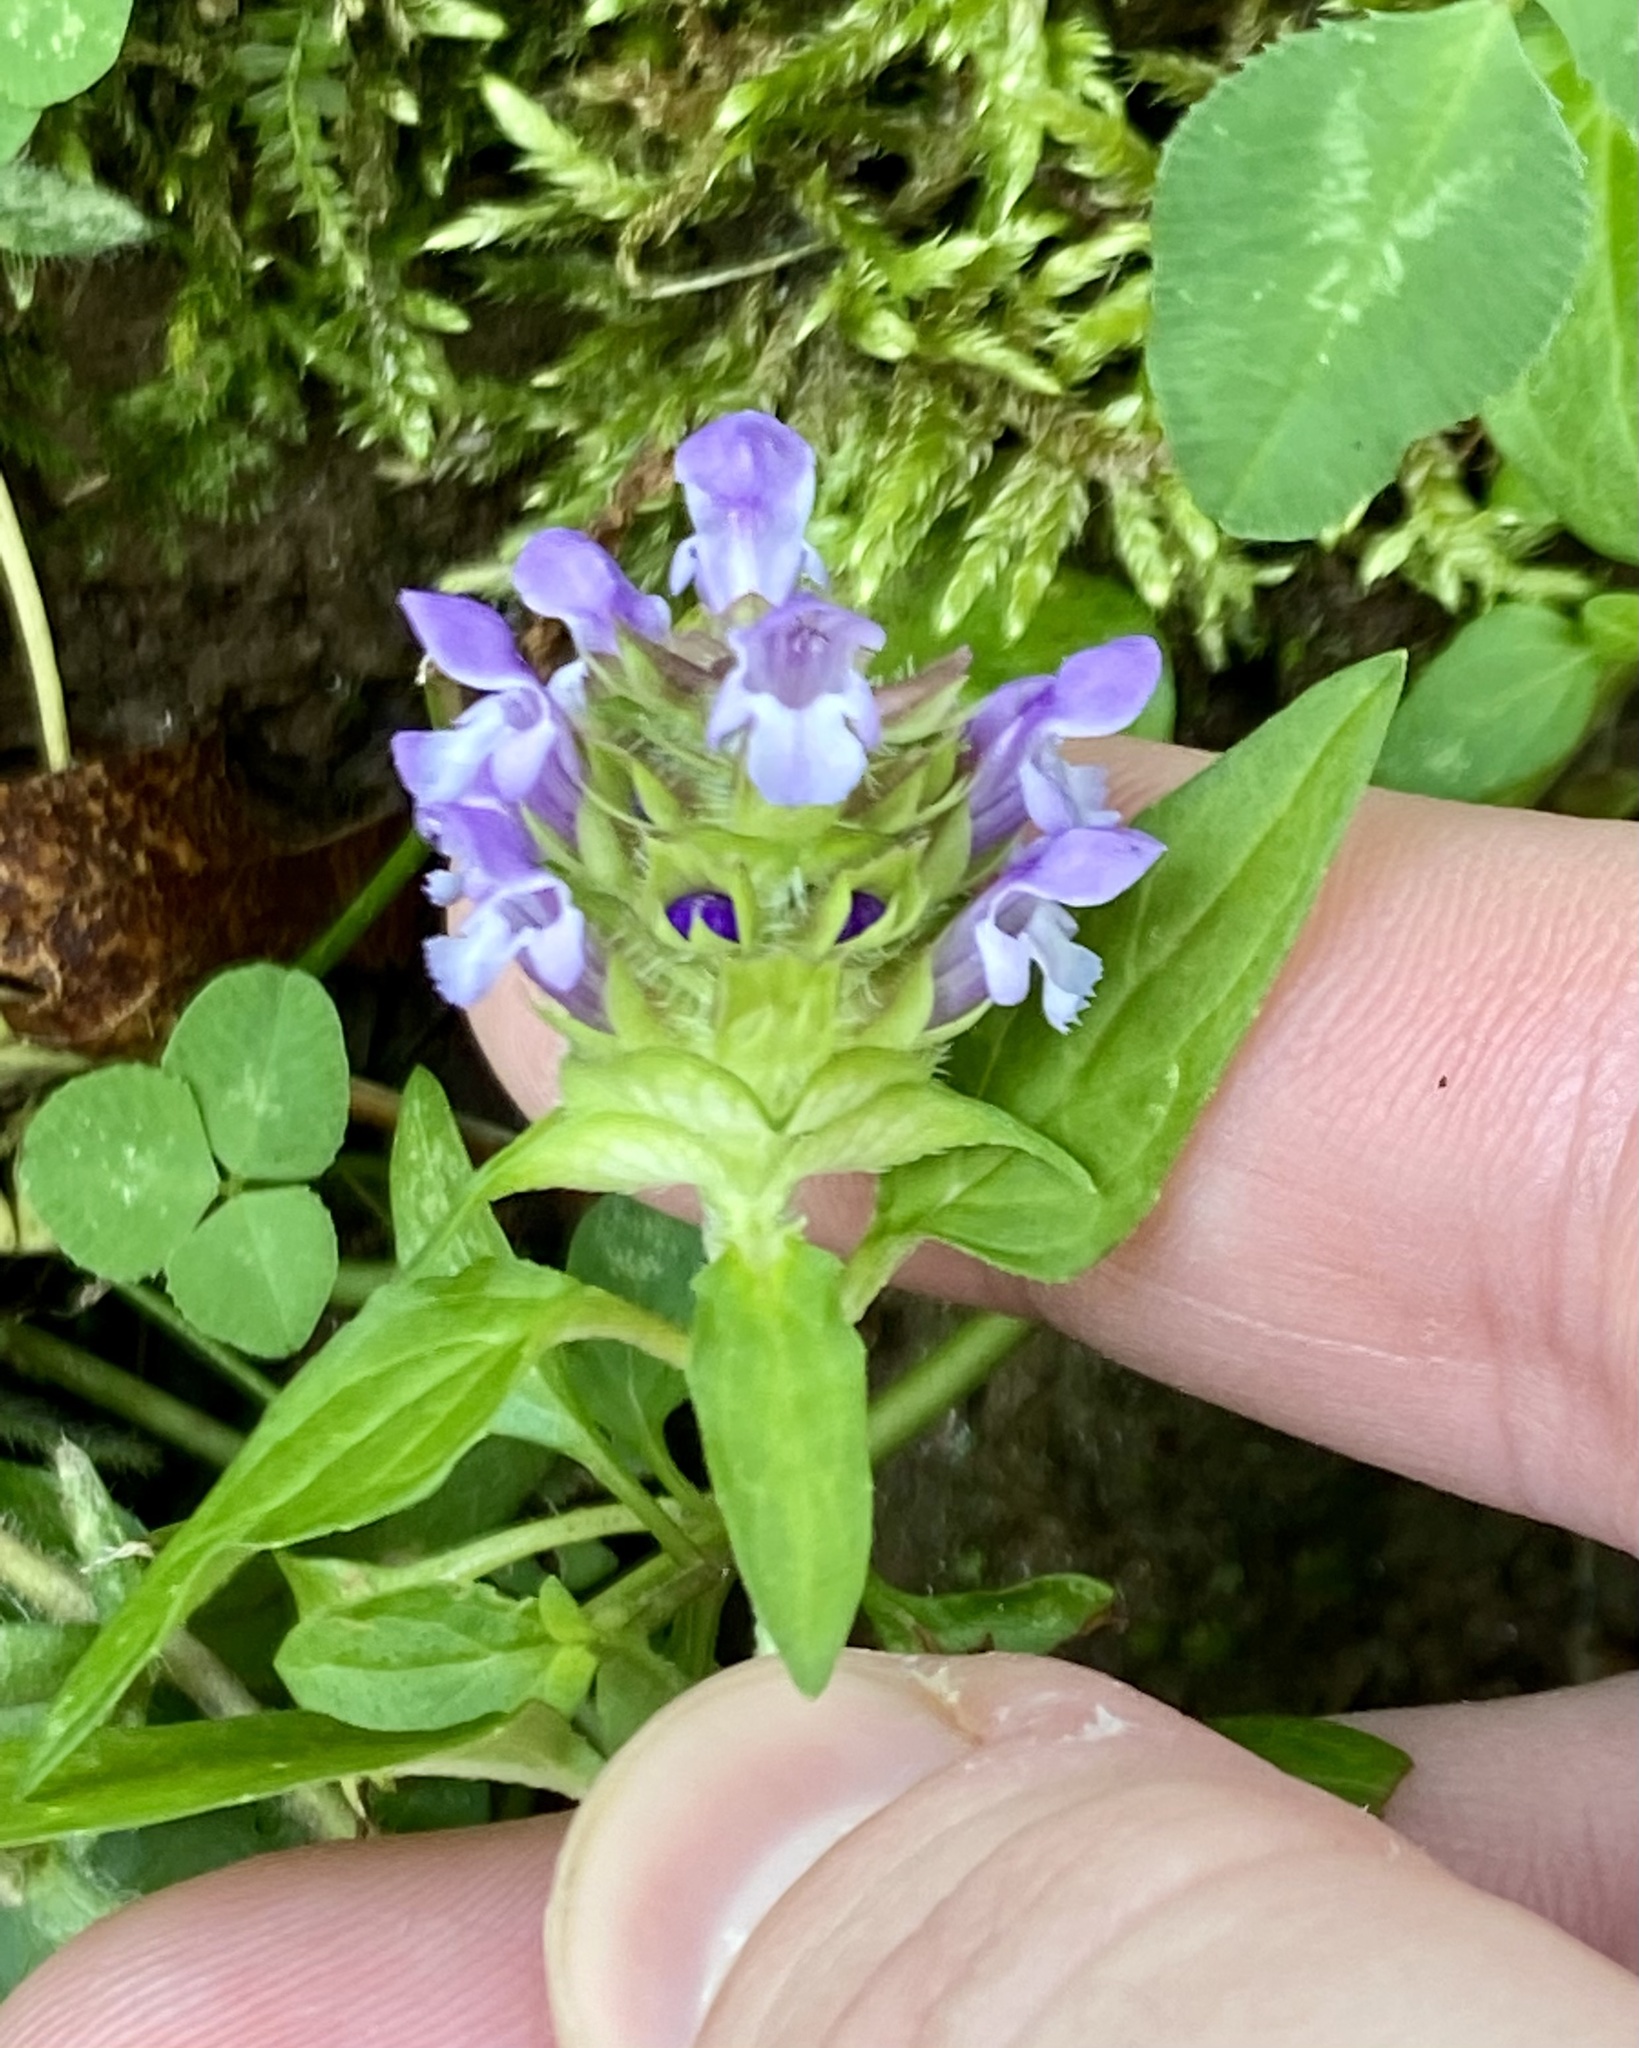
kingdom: Plantae
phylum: Tracheophyta
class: Magnoliopsida
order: Lamiales
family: Lamiaceae
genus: Prunella
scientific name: Prunella vulgaris
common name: Heal-all
